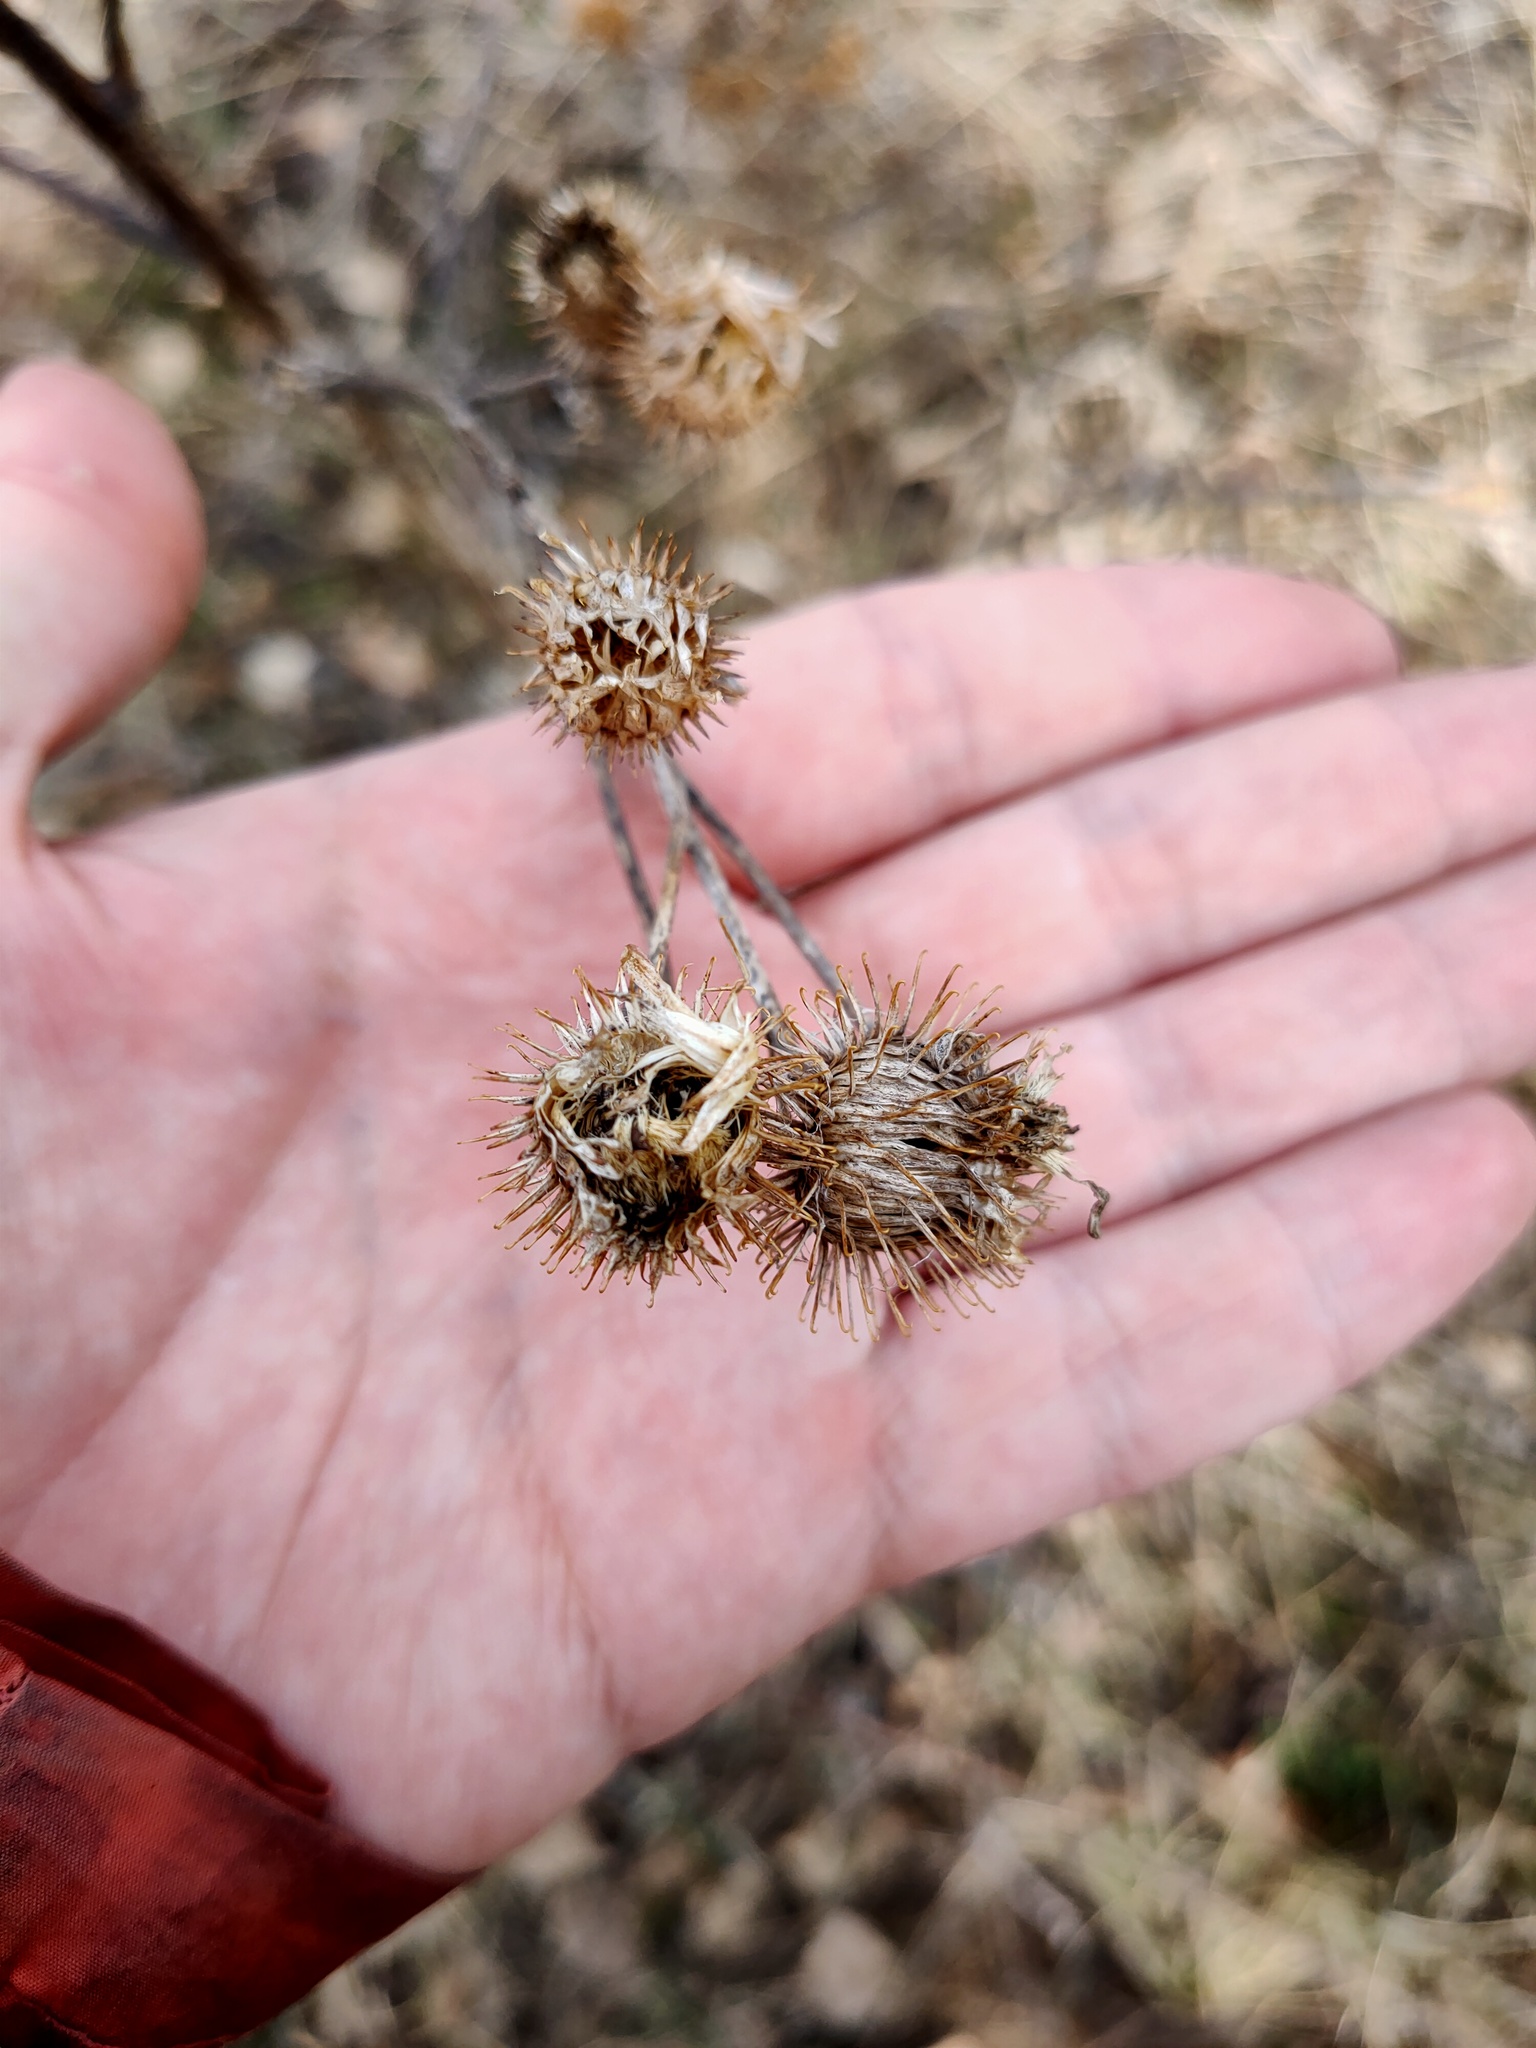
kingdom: Plantae
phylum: Tracheophyta
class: Magnoliopsida
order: Asterales
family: Asteraceae
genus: Arctium
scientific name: Arctium tomentosum
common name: Woolly burdock
